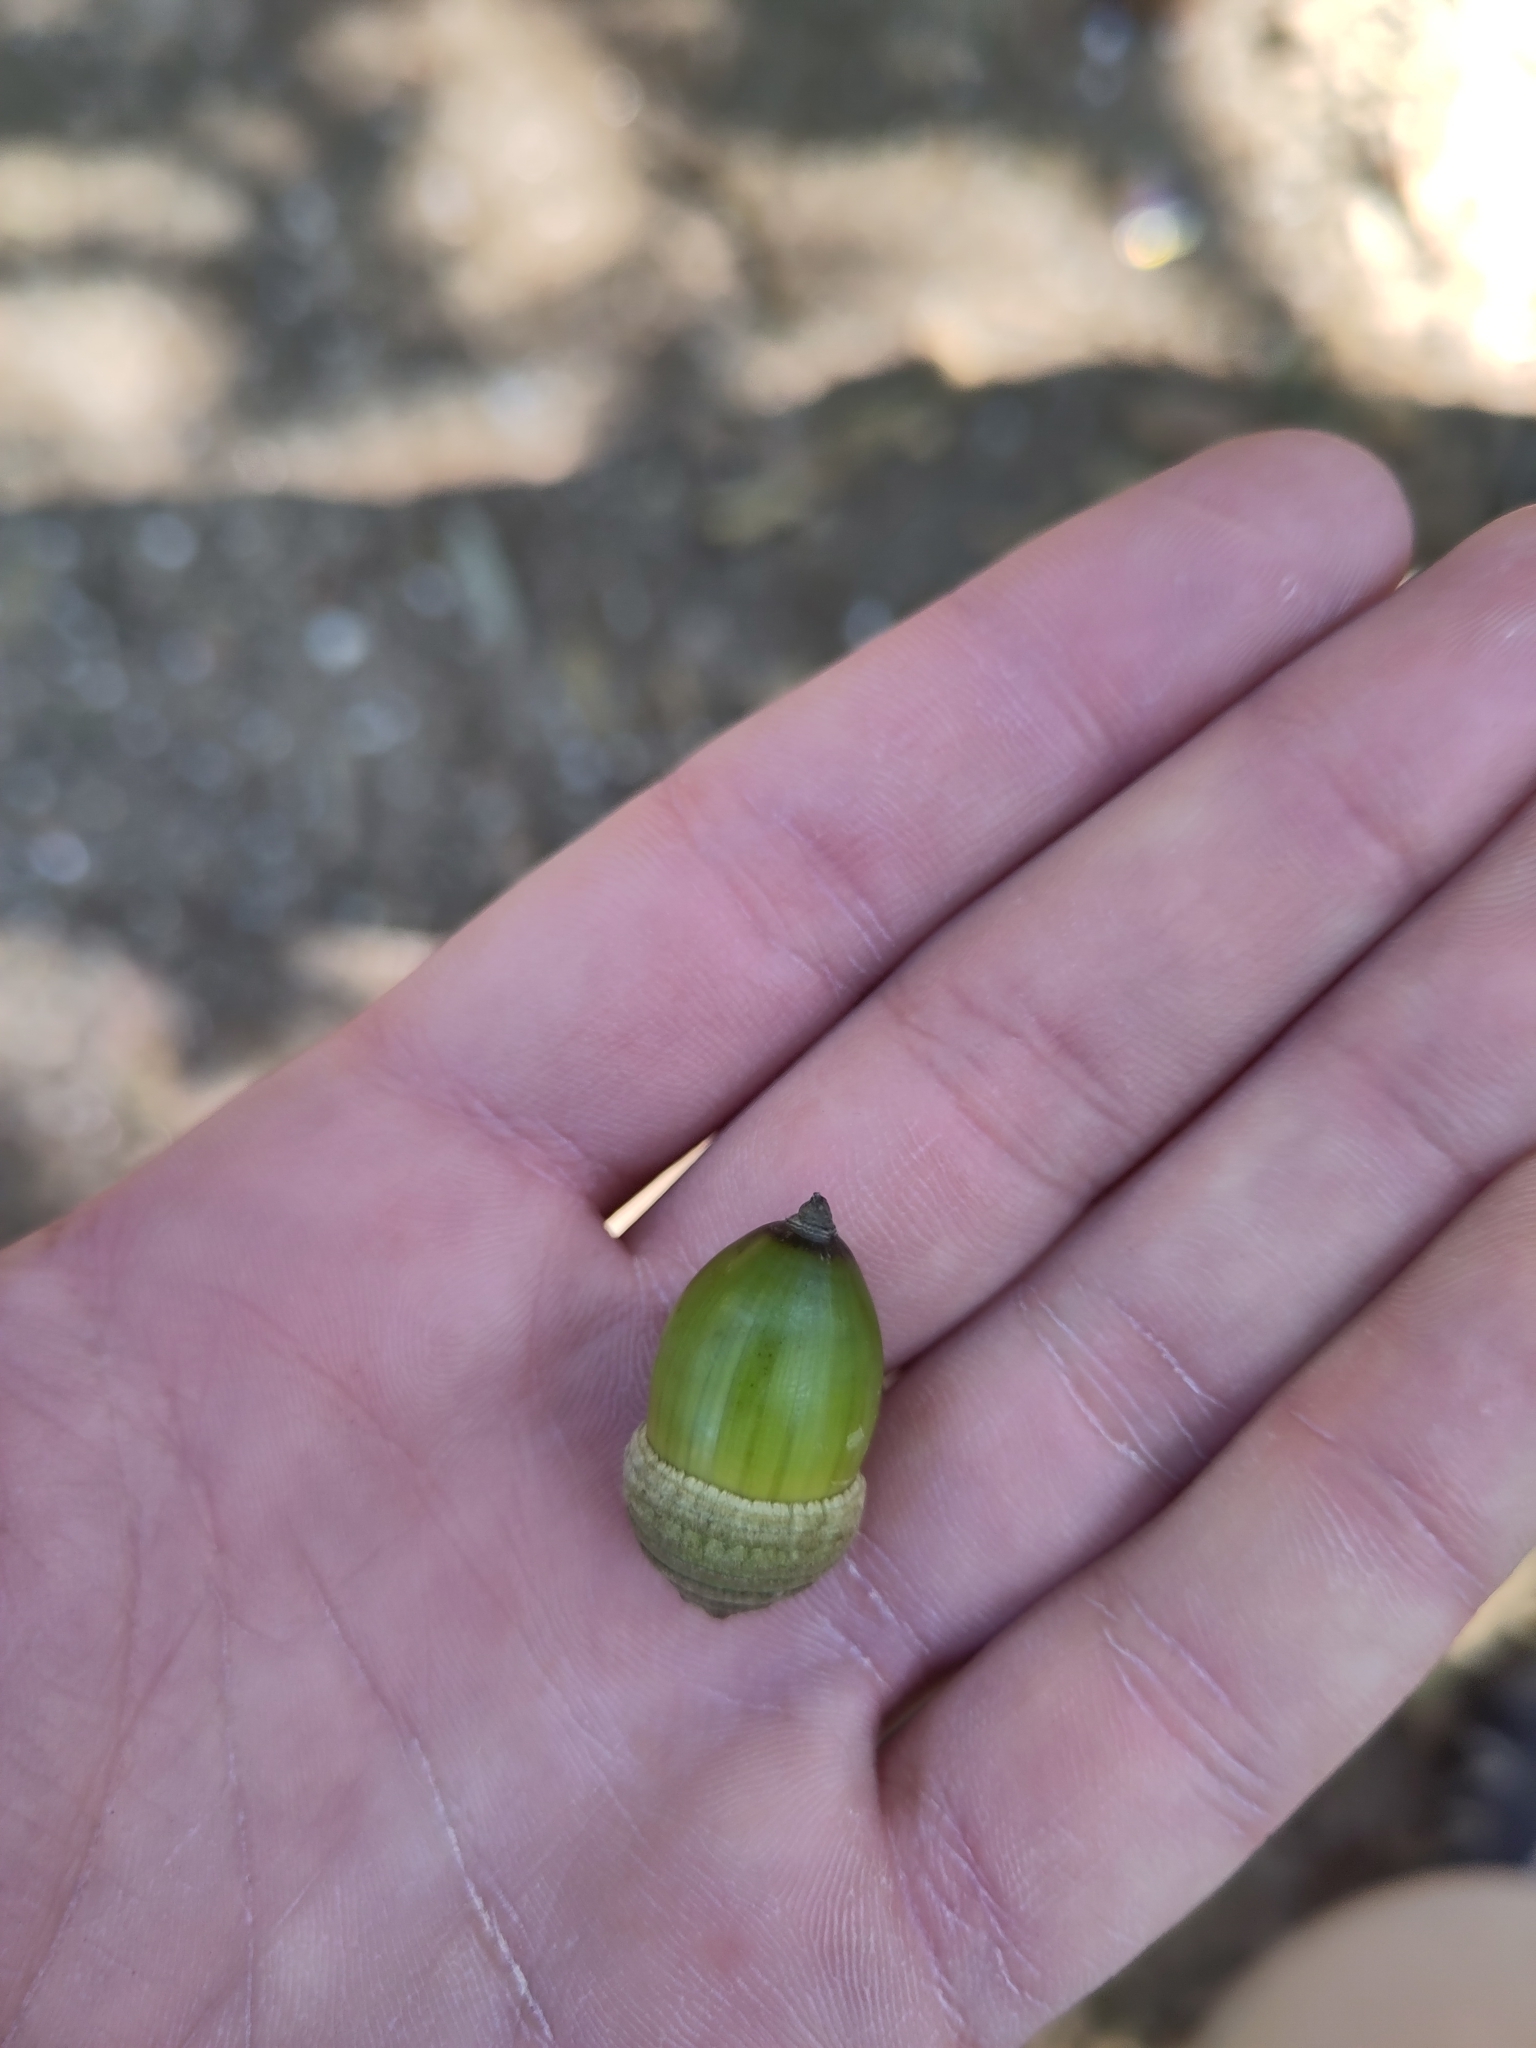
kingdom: Plantae
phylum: Tracheophyta
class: Magnoliopsida
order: Fagales
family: Fagaceae
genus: Quercus
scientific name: Quercus glauca
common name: Ring-cup oak
